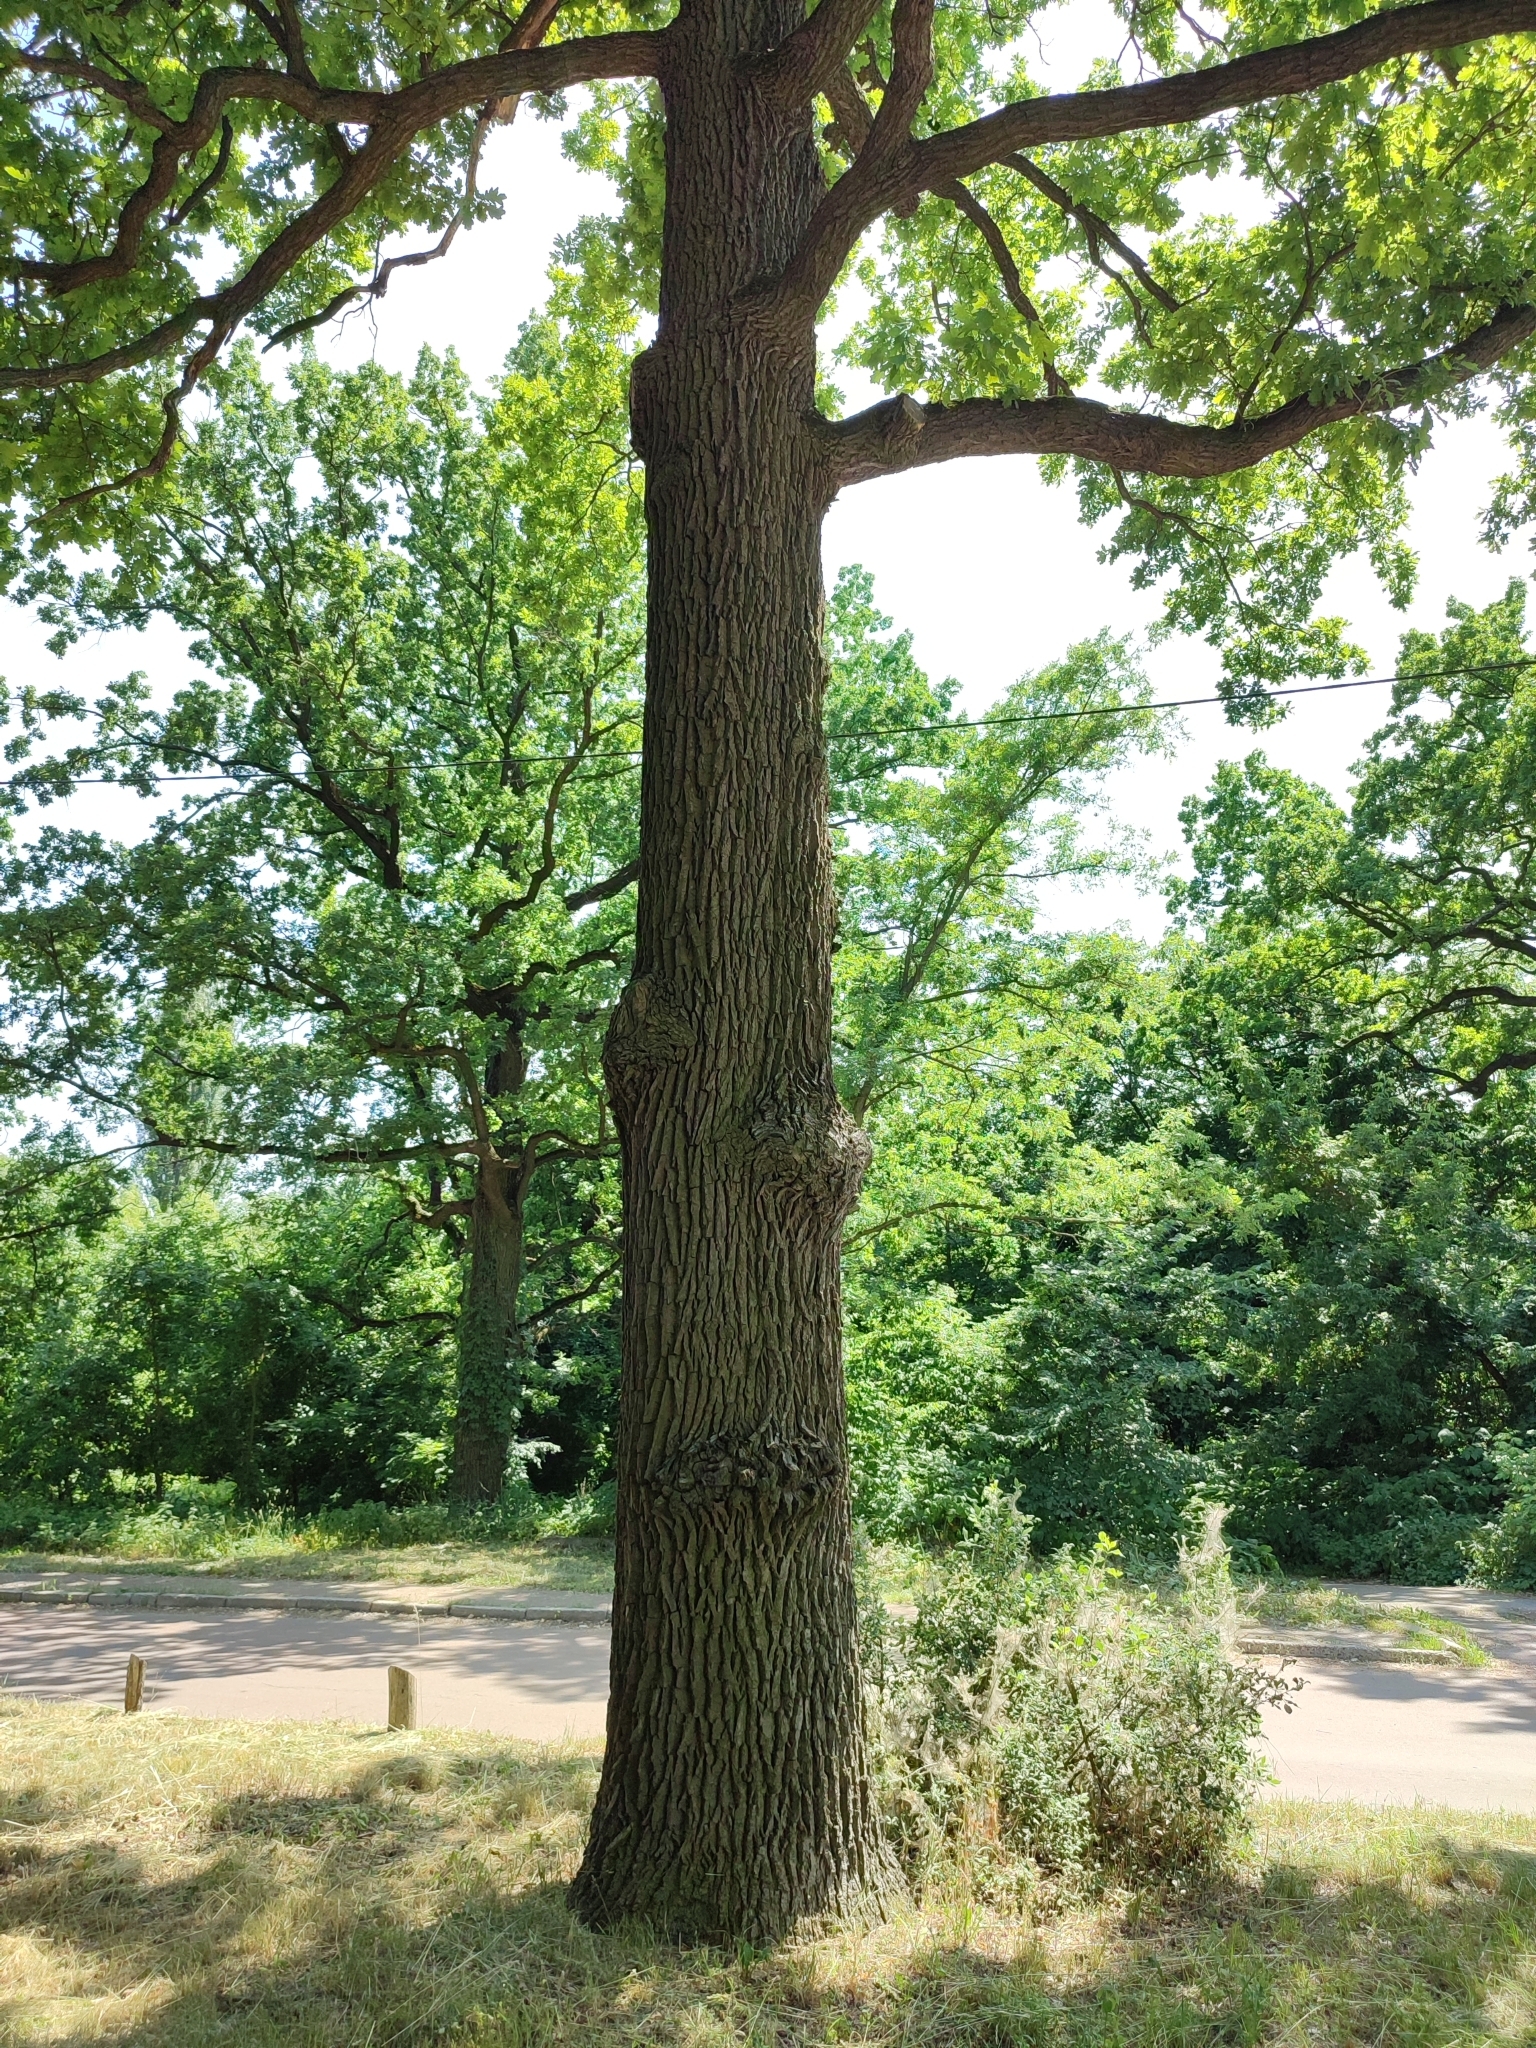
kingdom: Plantae
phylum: Tracheophyta
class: Magnoliopsida
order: Fagales
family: Fagaceae
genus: Quercus
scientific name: Quercus robur
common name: Pedunculate oak
